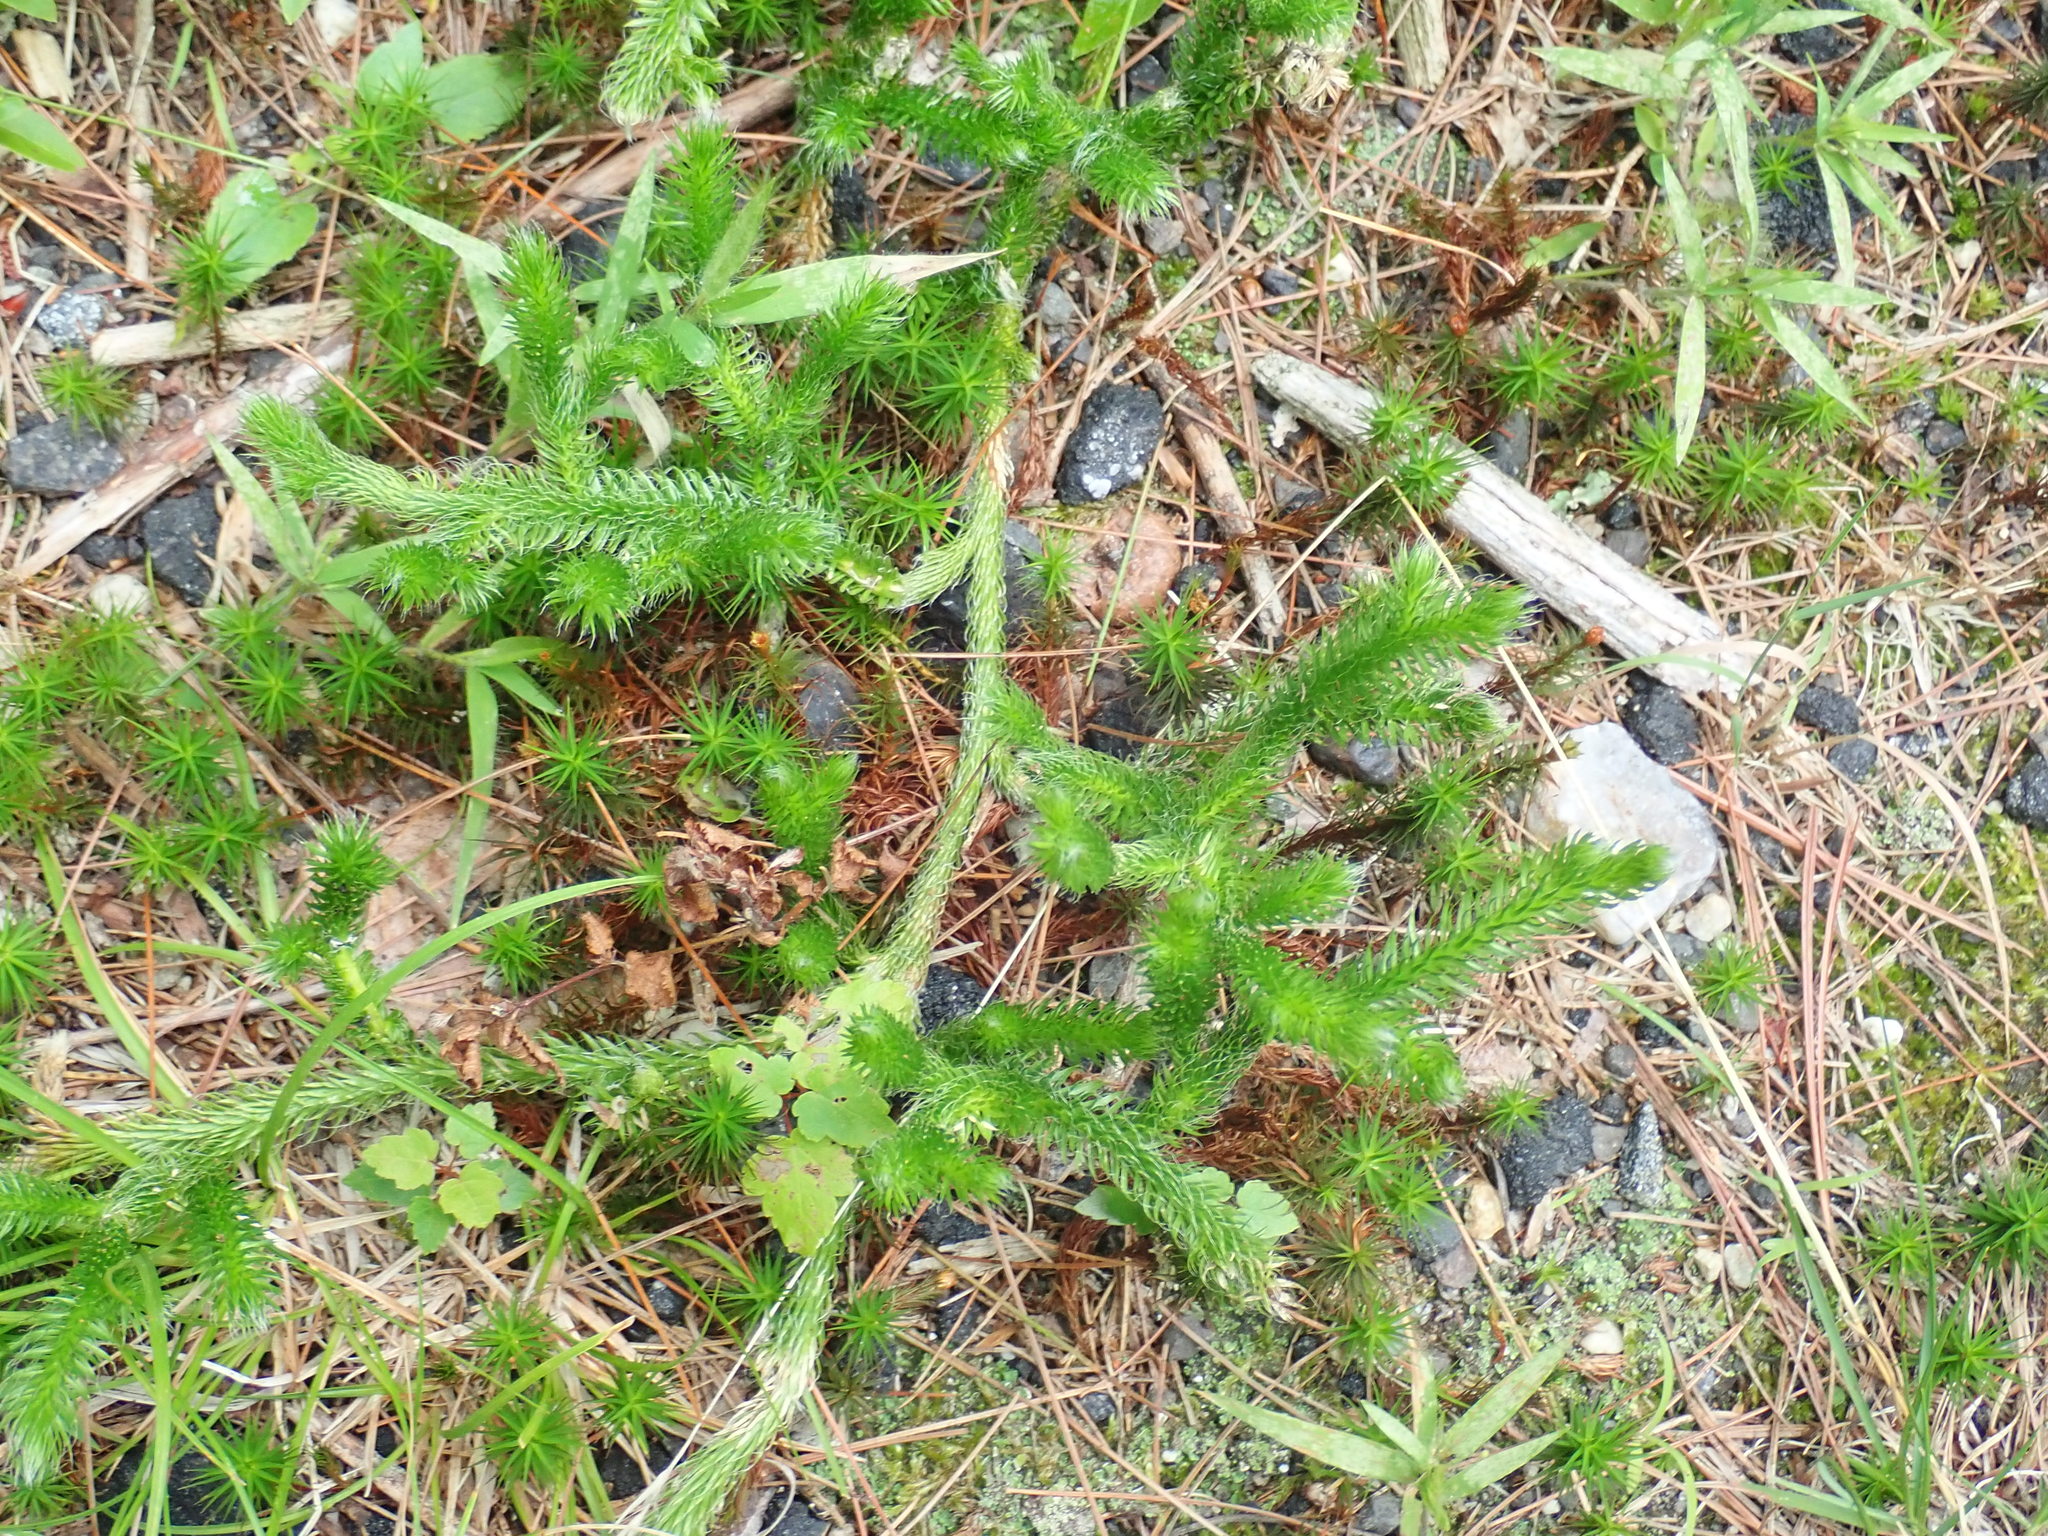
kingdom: Plantae
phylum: Tracheophyta
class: Lycopodiopsida
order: Lycopodiales
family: Lycopodiaceae
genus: Lycopodium
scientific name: Lycopodium clavatum
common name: Stag's-horn clubmoss
